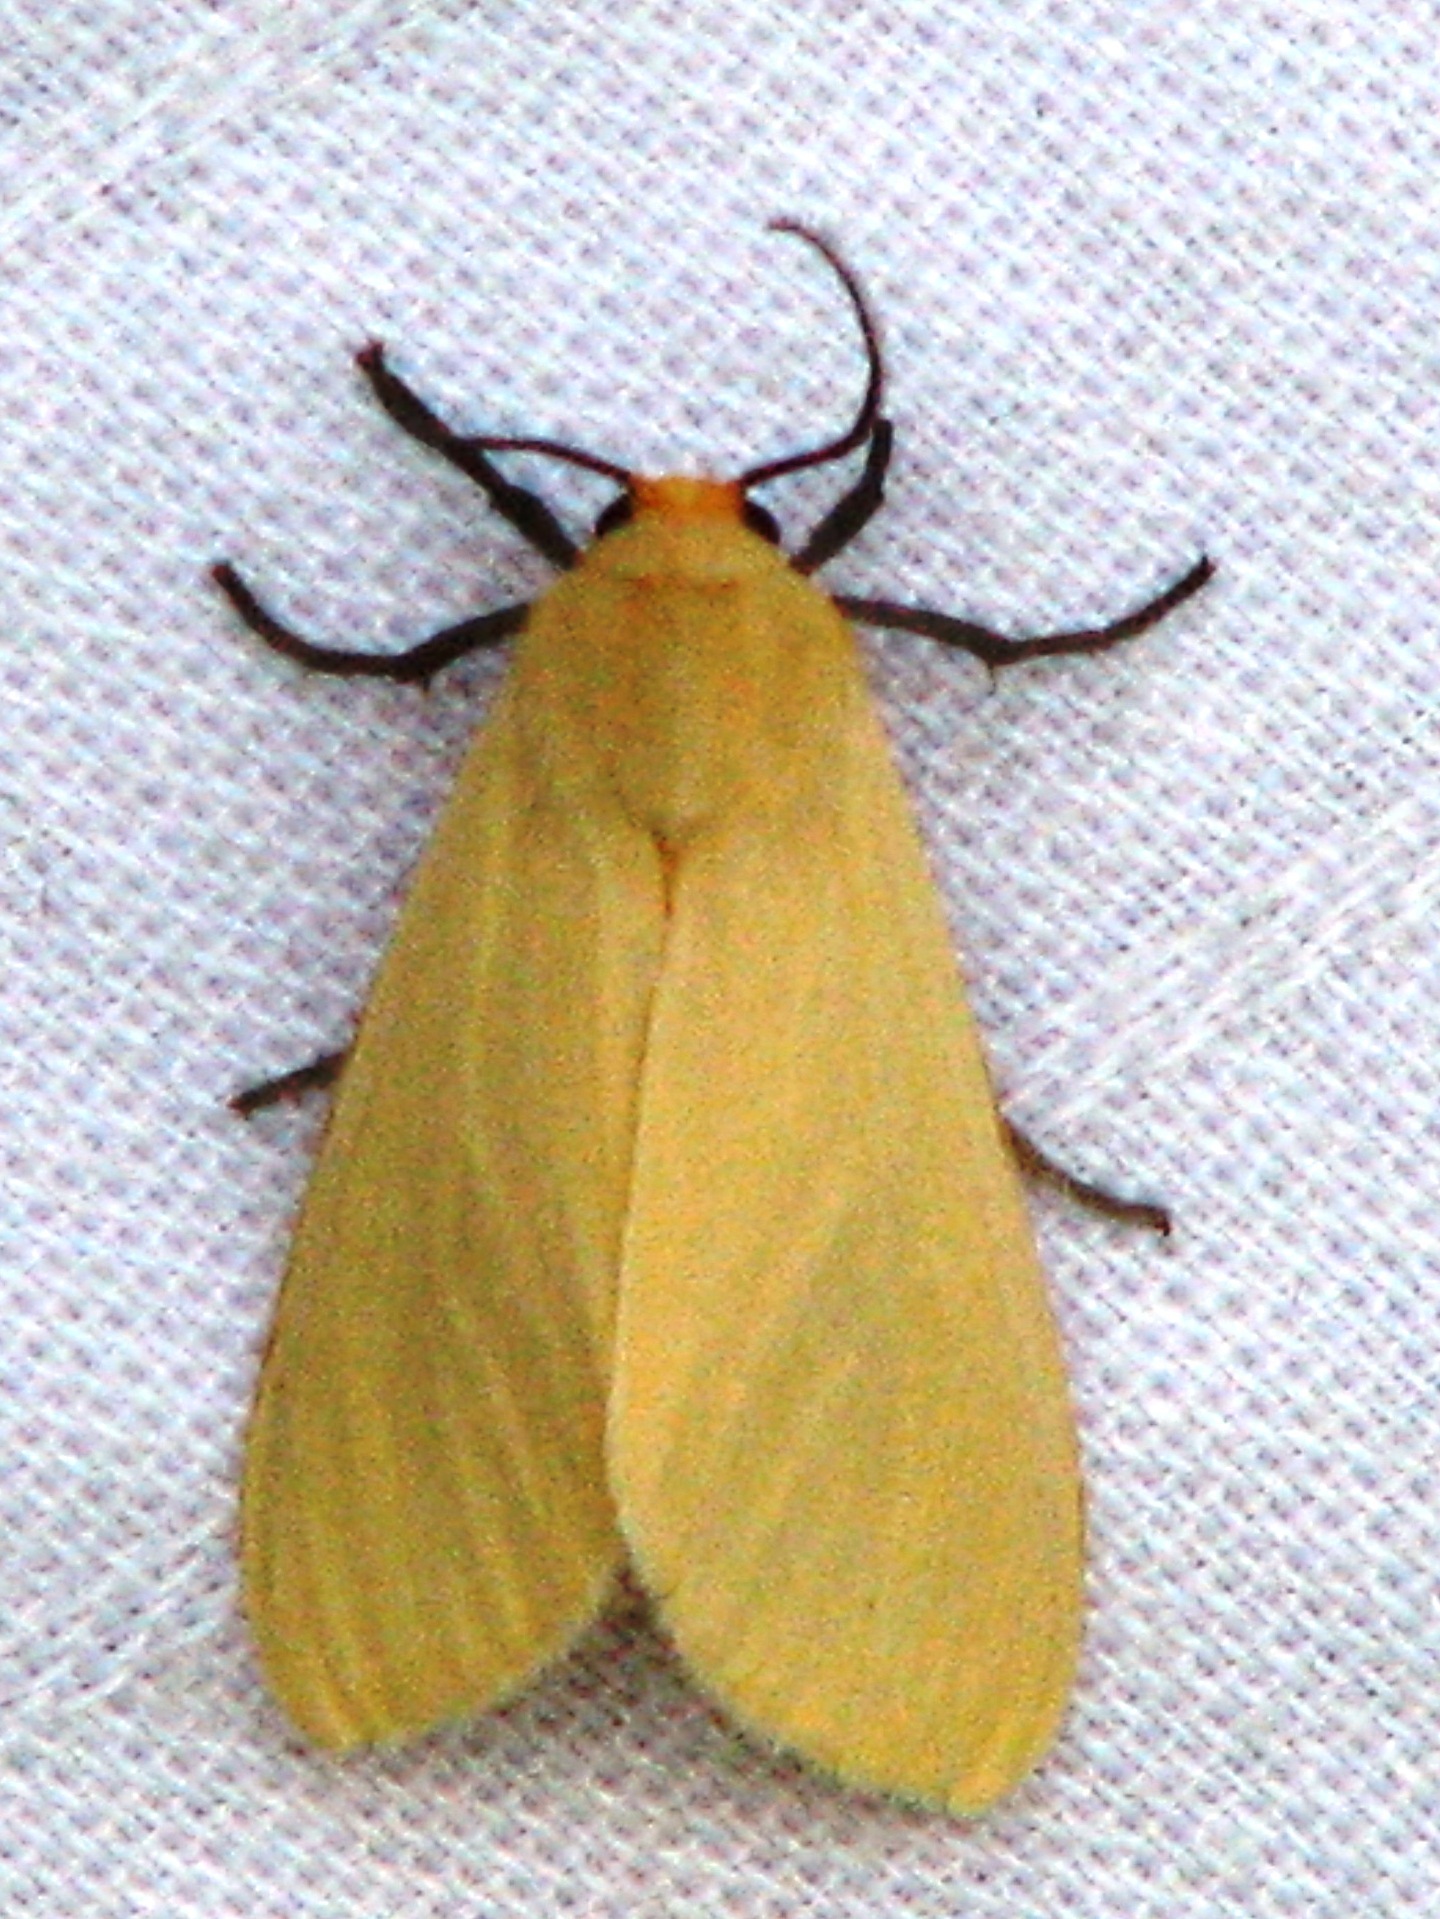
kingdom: Animalia
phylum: Arthropoda
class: Insecta
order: Lepidoptera
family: Erebidae
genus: Pareuchaetes
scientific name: Pareuchaetes insulata
